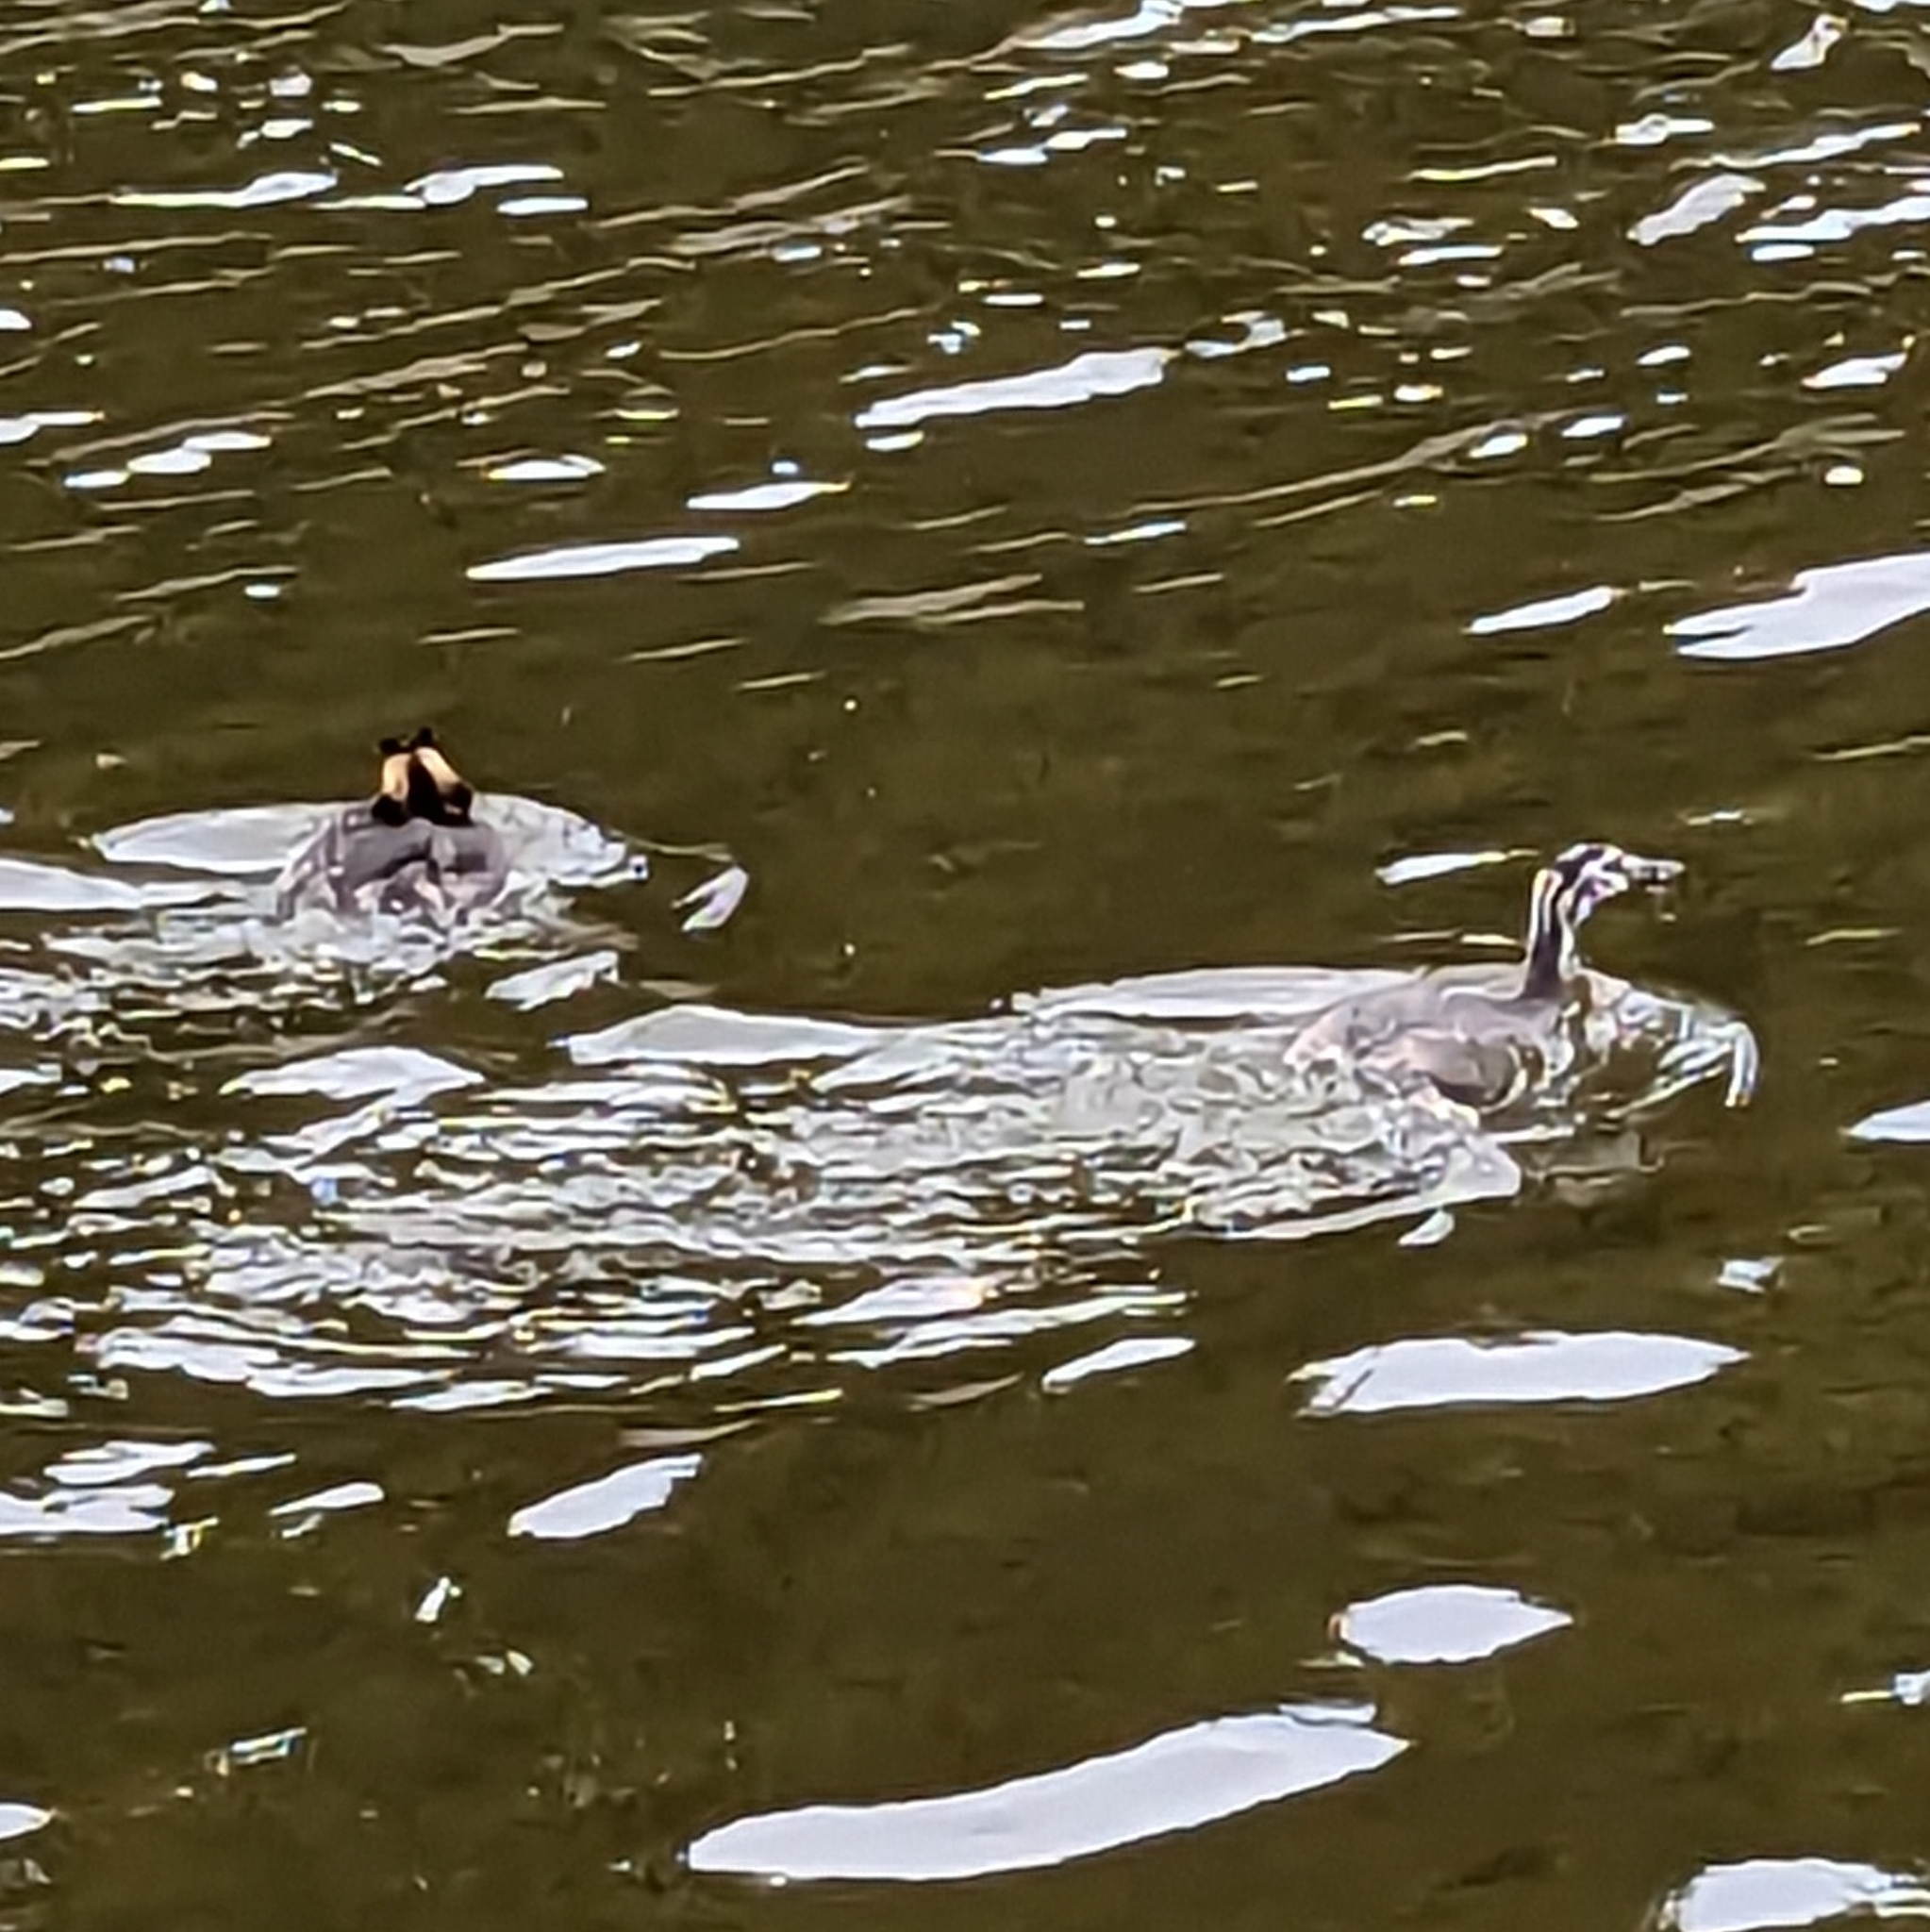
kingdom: Animalia
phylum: Chordata
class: Aves
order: Podicipediformes
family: Podicipedidae
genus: Podiceps
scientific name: Podiceps cristatus
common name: Great crested grebe
